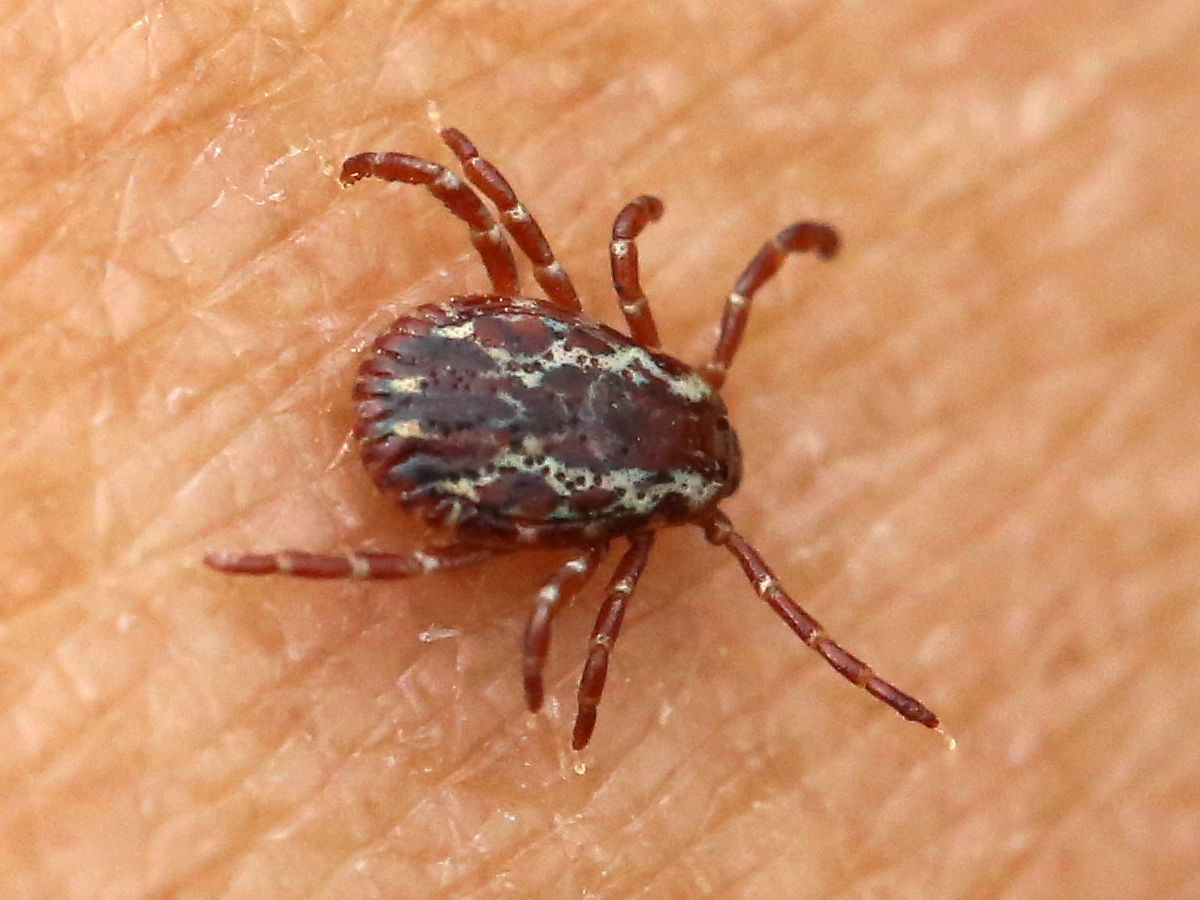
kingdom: Animalia
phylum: Arthropoda
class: Arachnida
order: Ixodida
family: Ixodidae
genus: Dermacentor
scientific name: Dermacentor variabilis
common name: American dog tick
